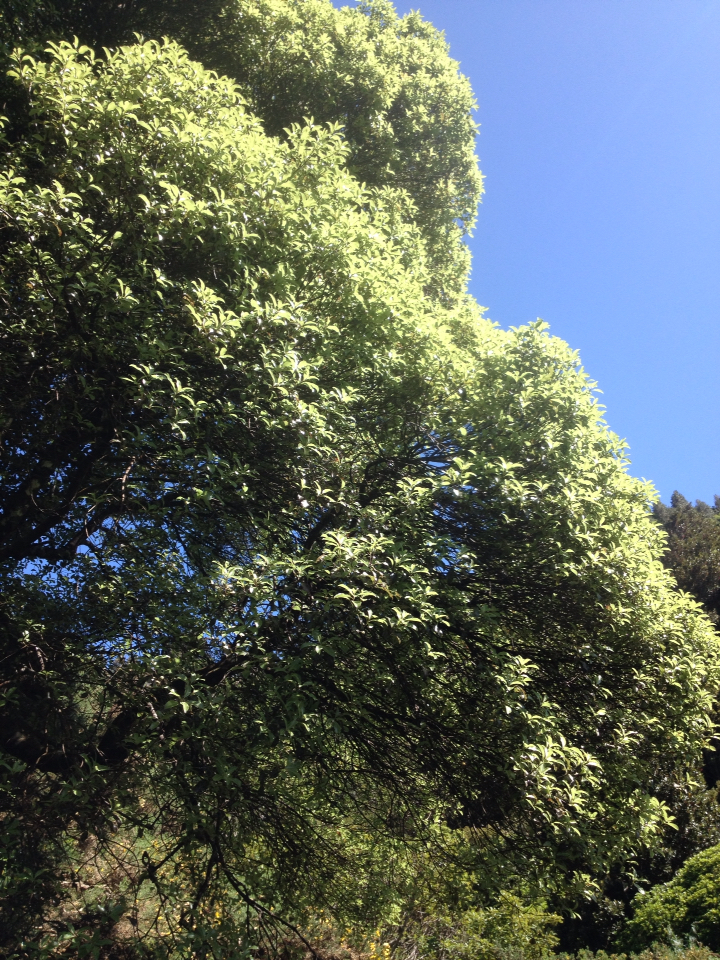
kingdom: Plantae
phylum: Tracheophyta
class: Magnoliopsida
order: Apiales
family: Pittosporaceae
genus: Pittosporum
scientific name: Pittosporum tenuifolium
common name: Kohuhu
